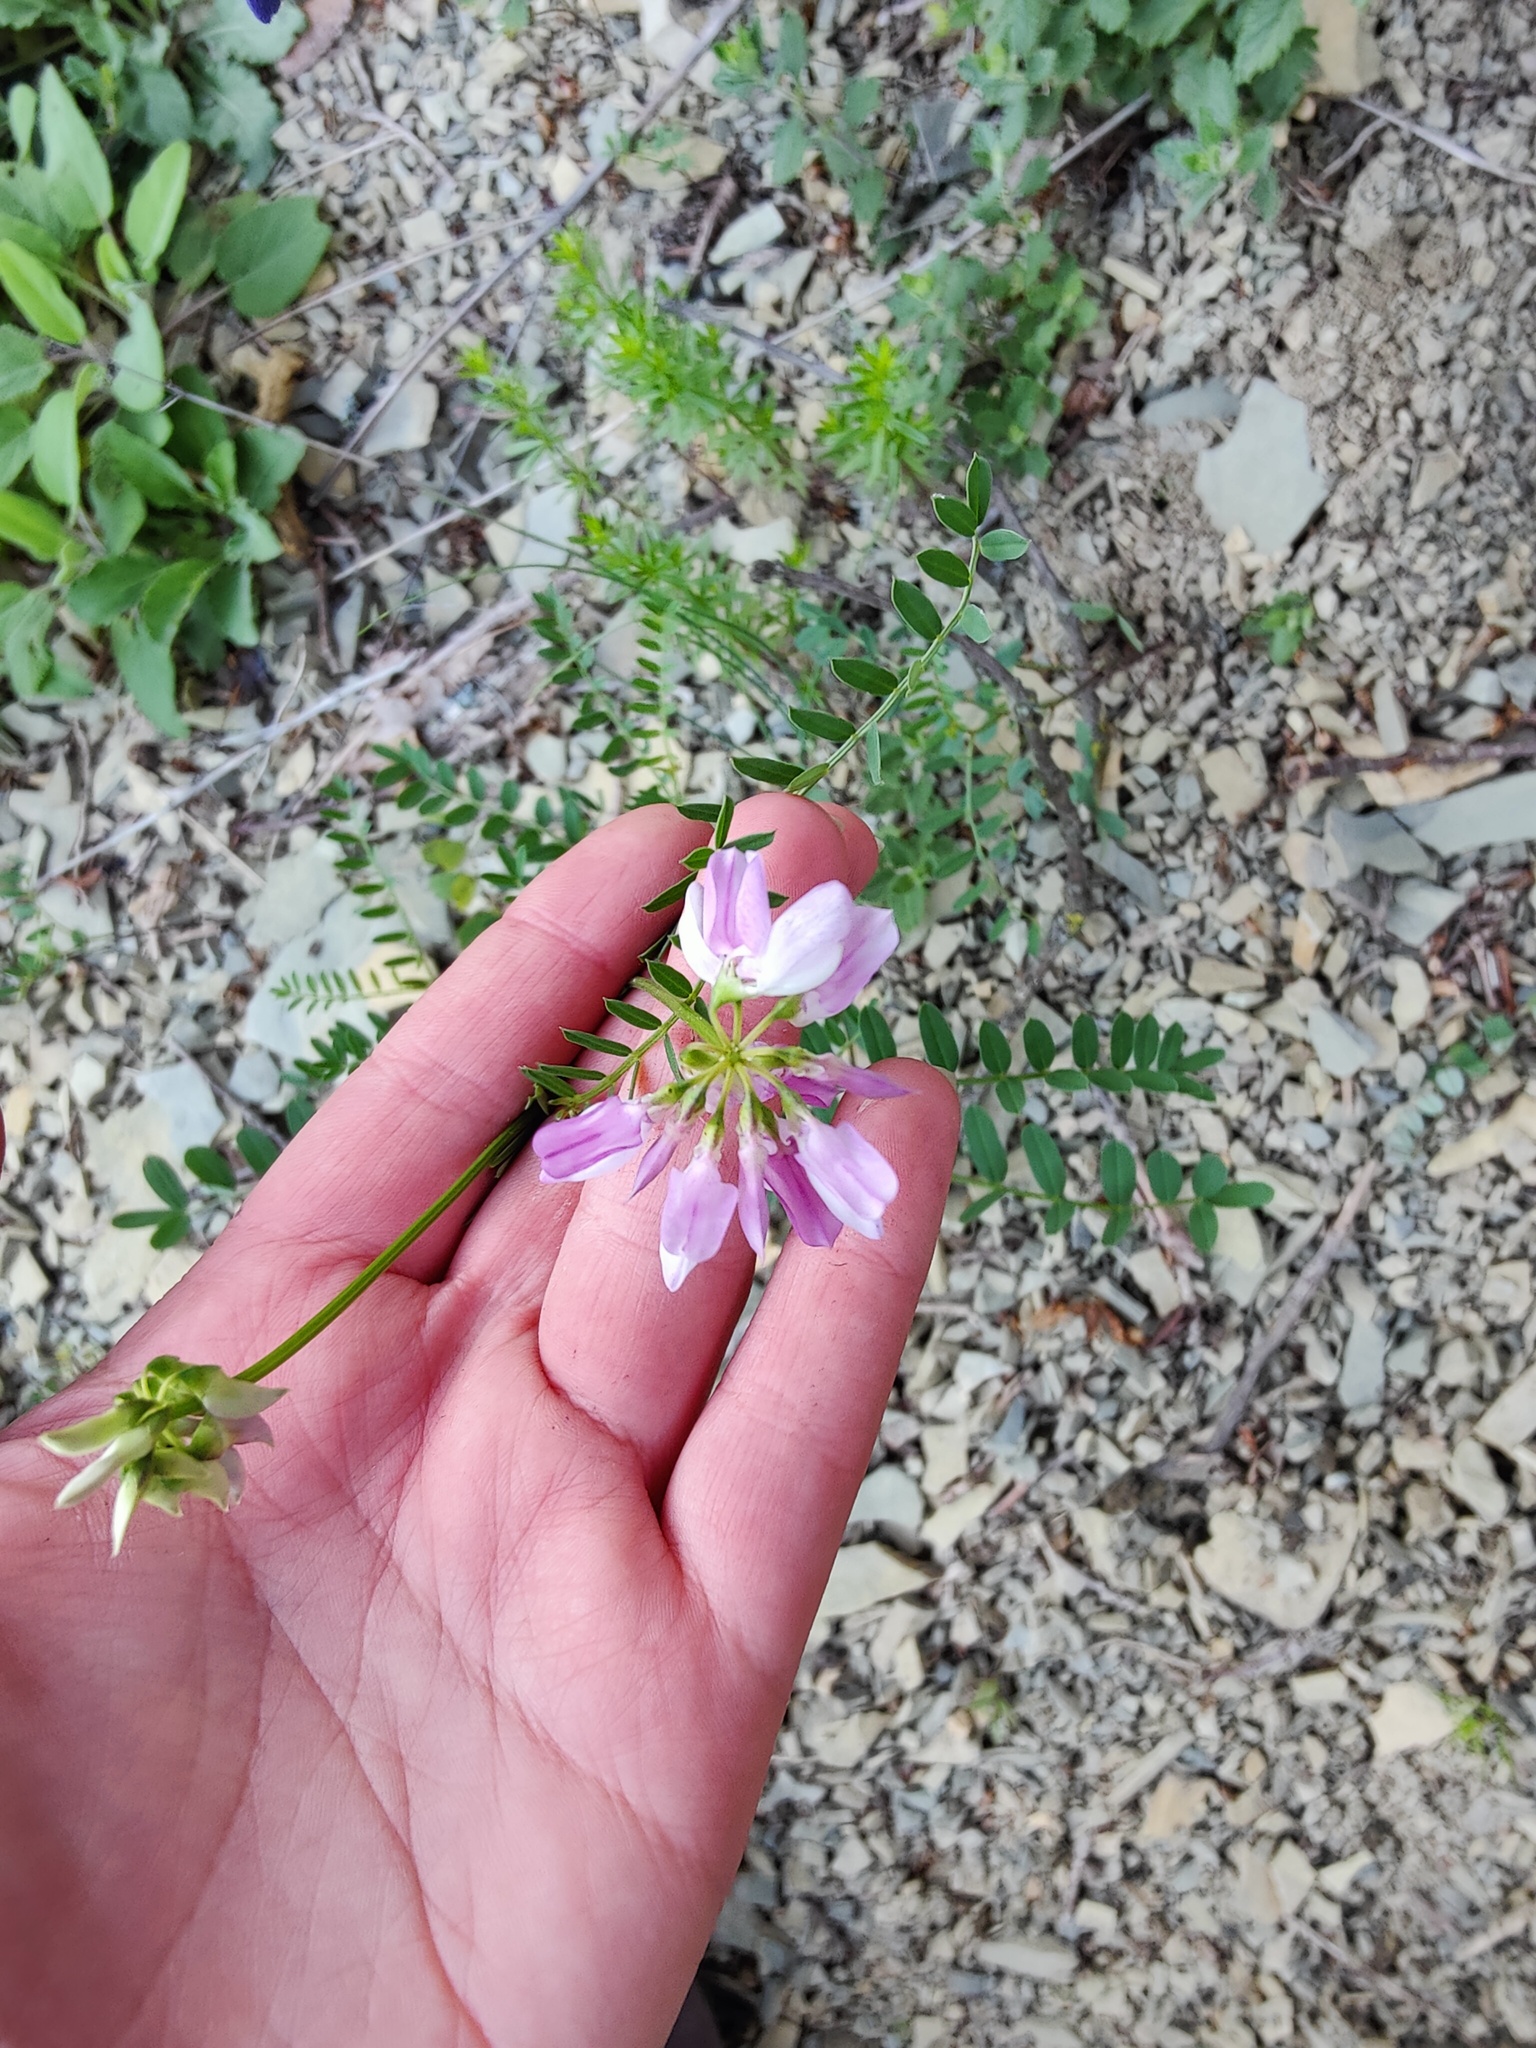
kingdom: Plantae
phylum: Tracheophyta
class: Magnoliopsida
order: Fabales
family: Fabaceae
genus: Coronilla
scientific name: Coronilla varia
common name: Crownvetch
